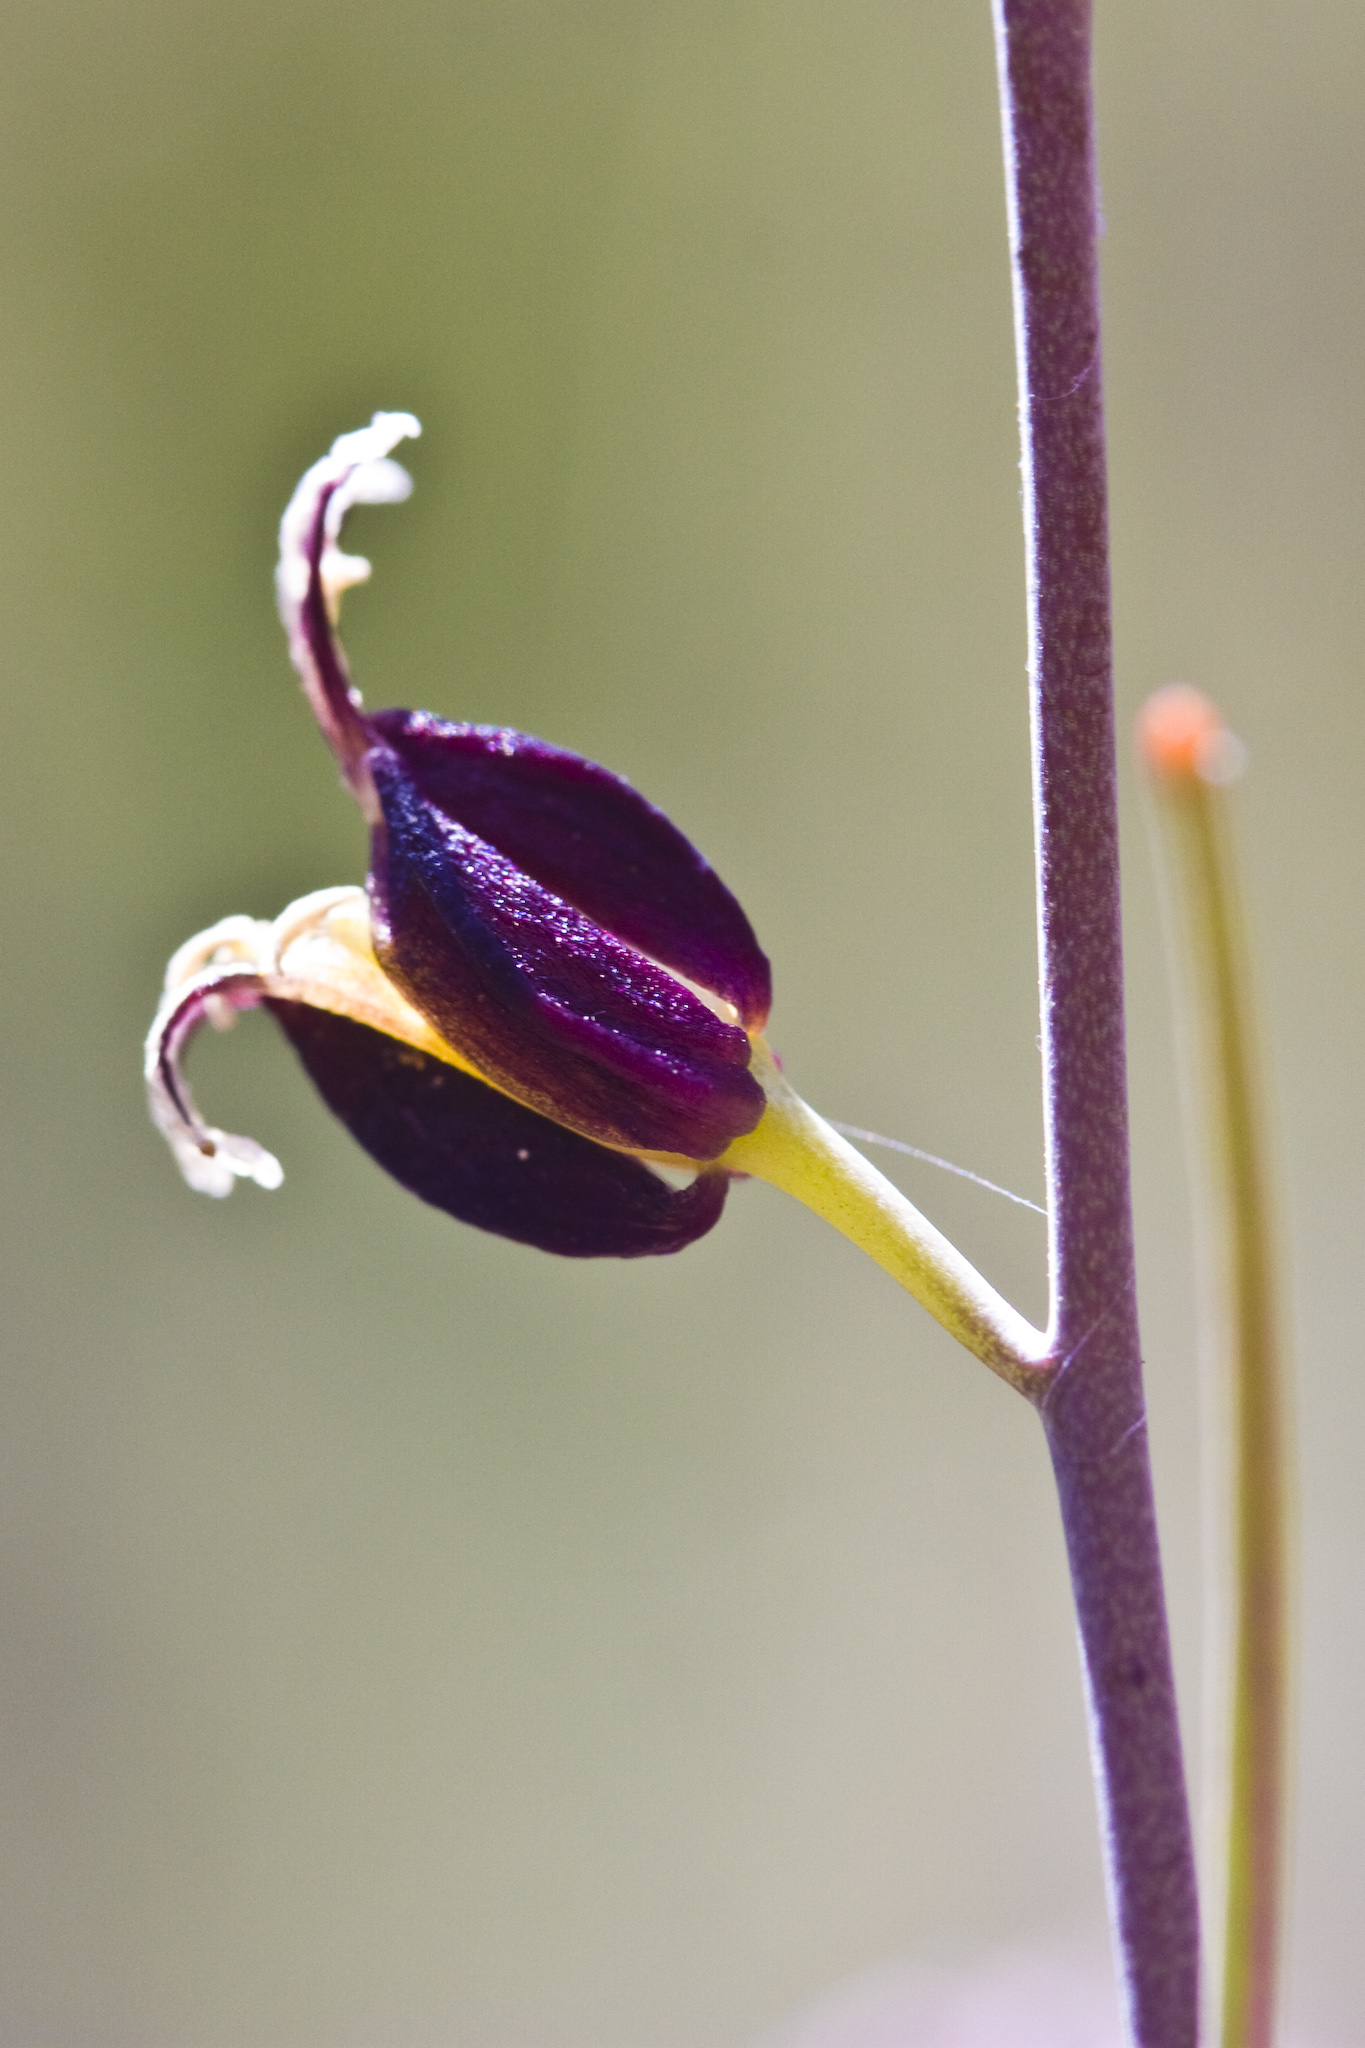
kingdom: Plantae
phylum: Tracheophyta
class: Magnoliopsida
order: Brassicales
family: Brassicaceae
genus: Streptanthus
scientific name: Streptanthus glandulosus
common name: Jewel-flower
